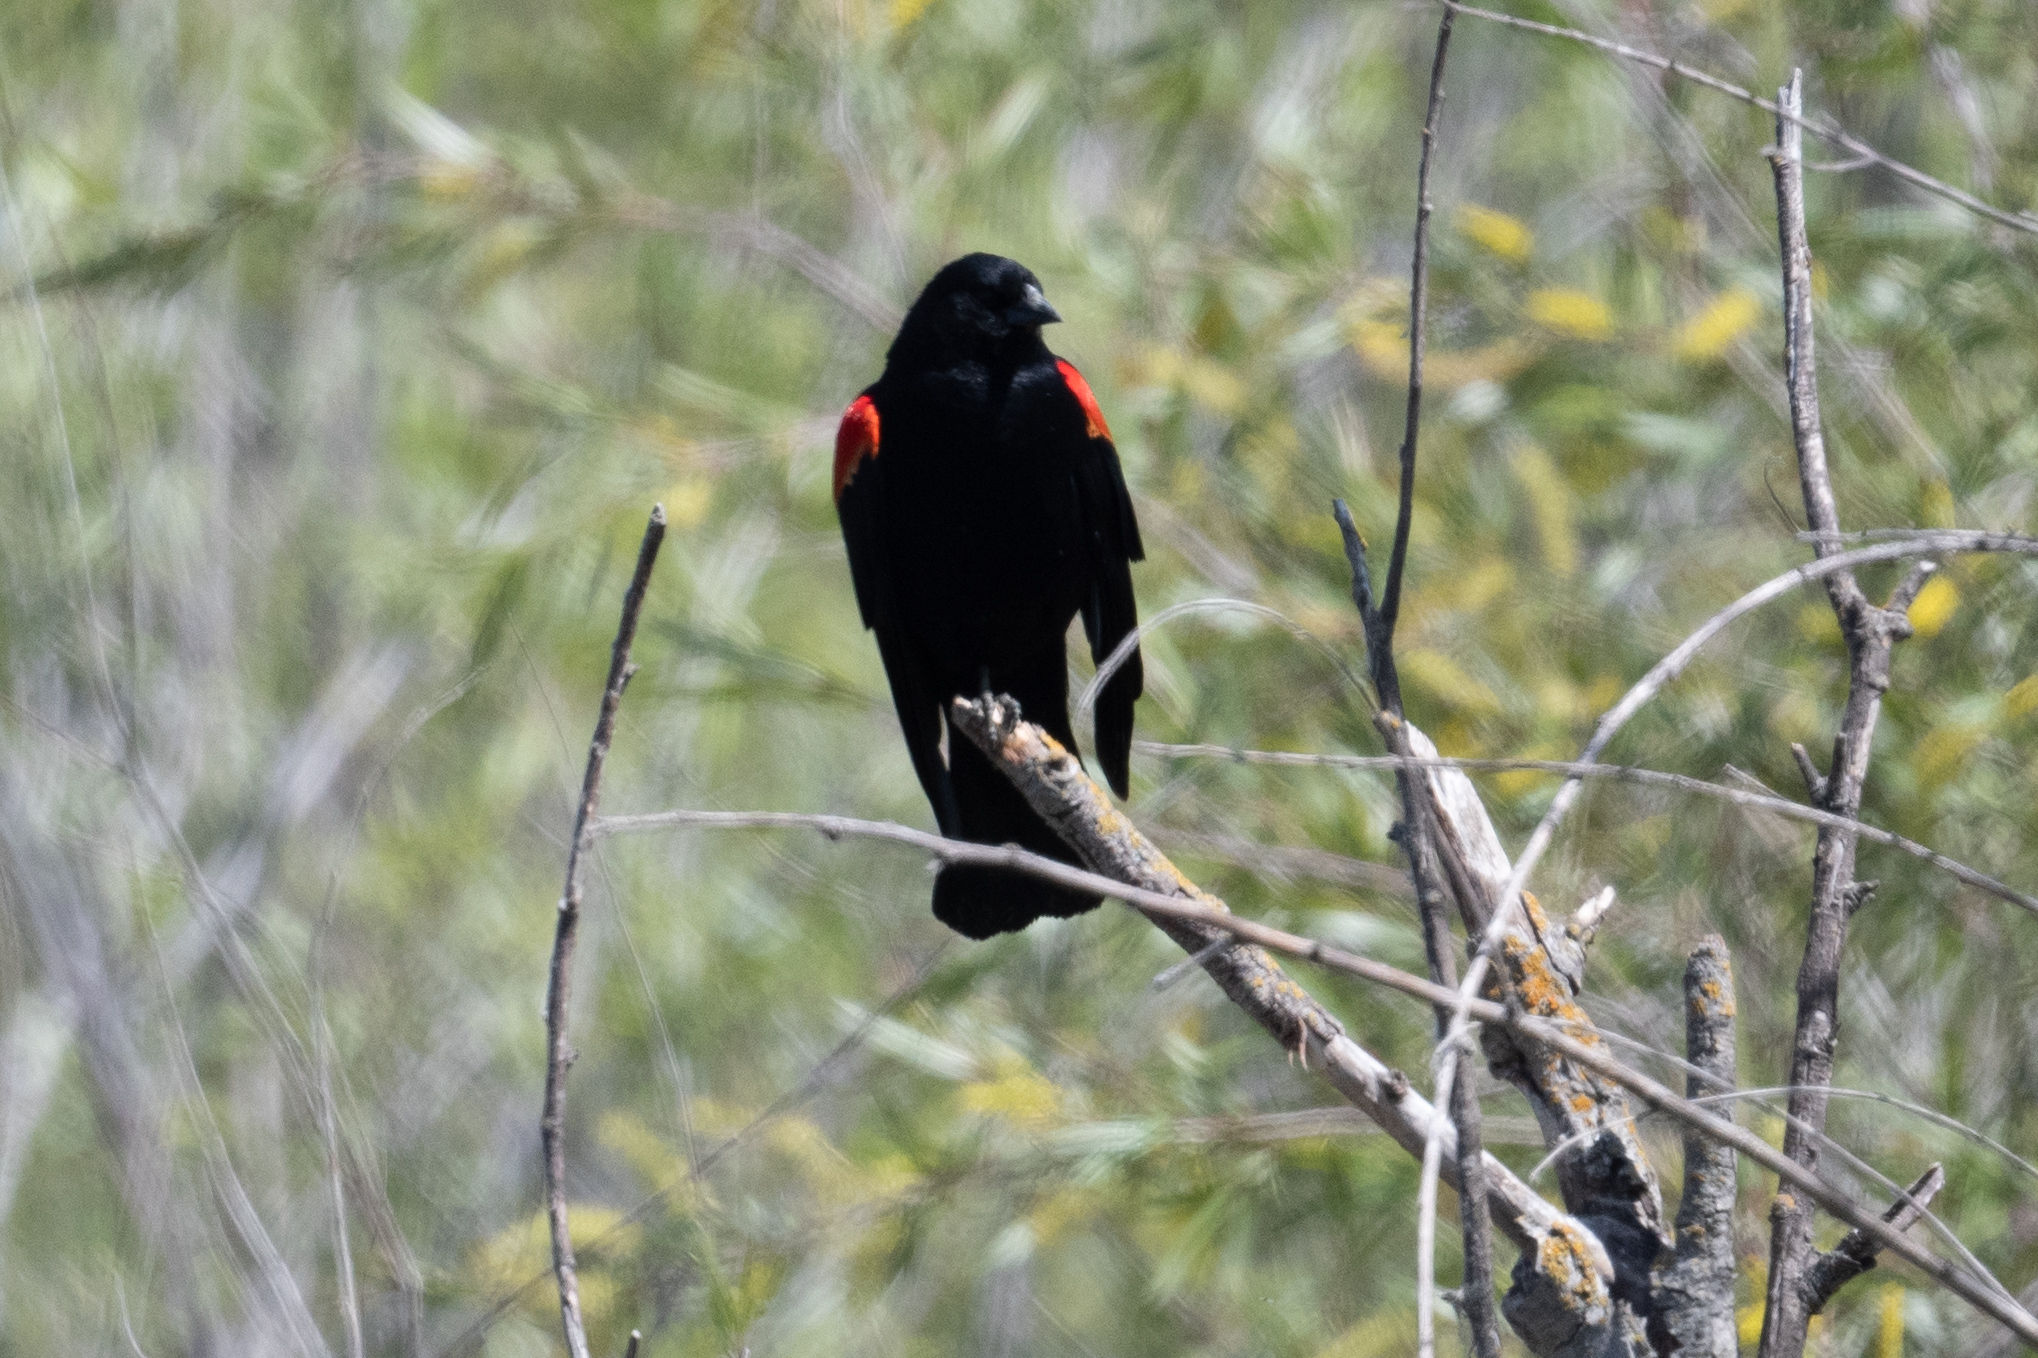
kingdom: Animalia
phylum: Chordata
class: Aves
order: Passeriformes
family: Icteridae
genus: Agelaius
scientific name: Agelaius phoeniceus
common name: Red-winged blackbird
